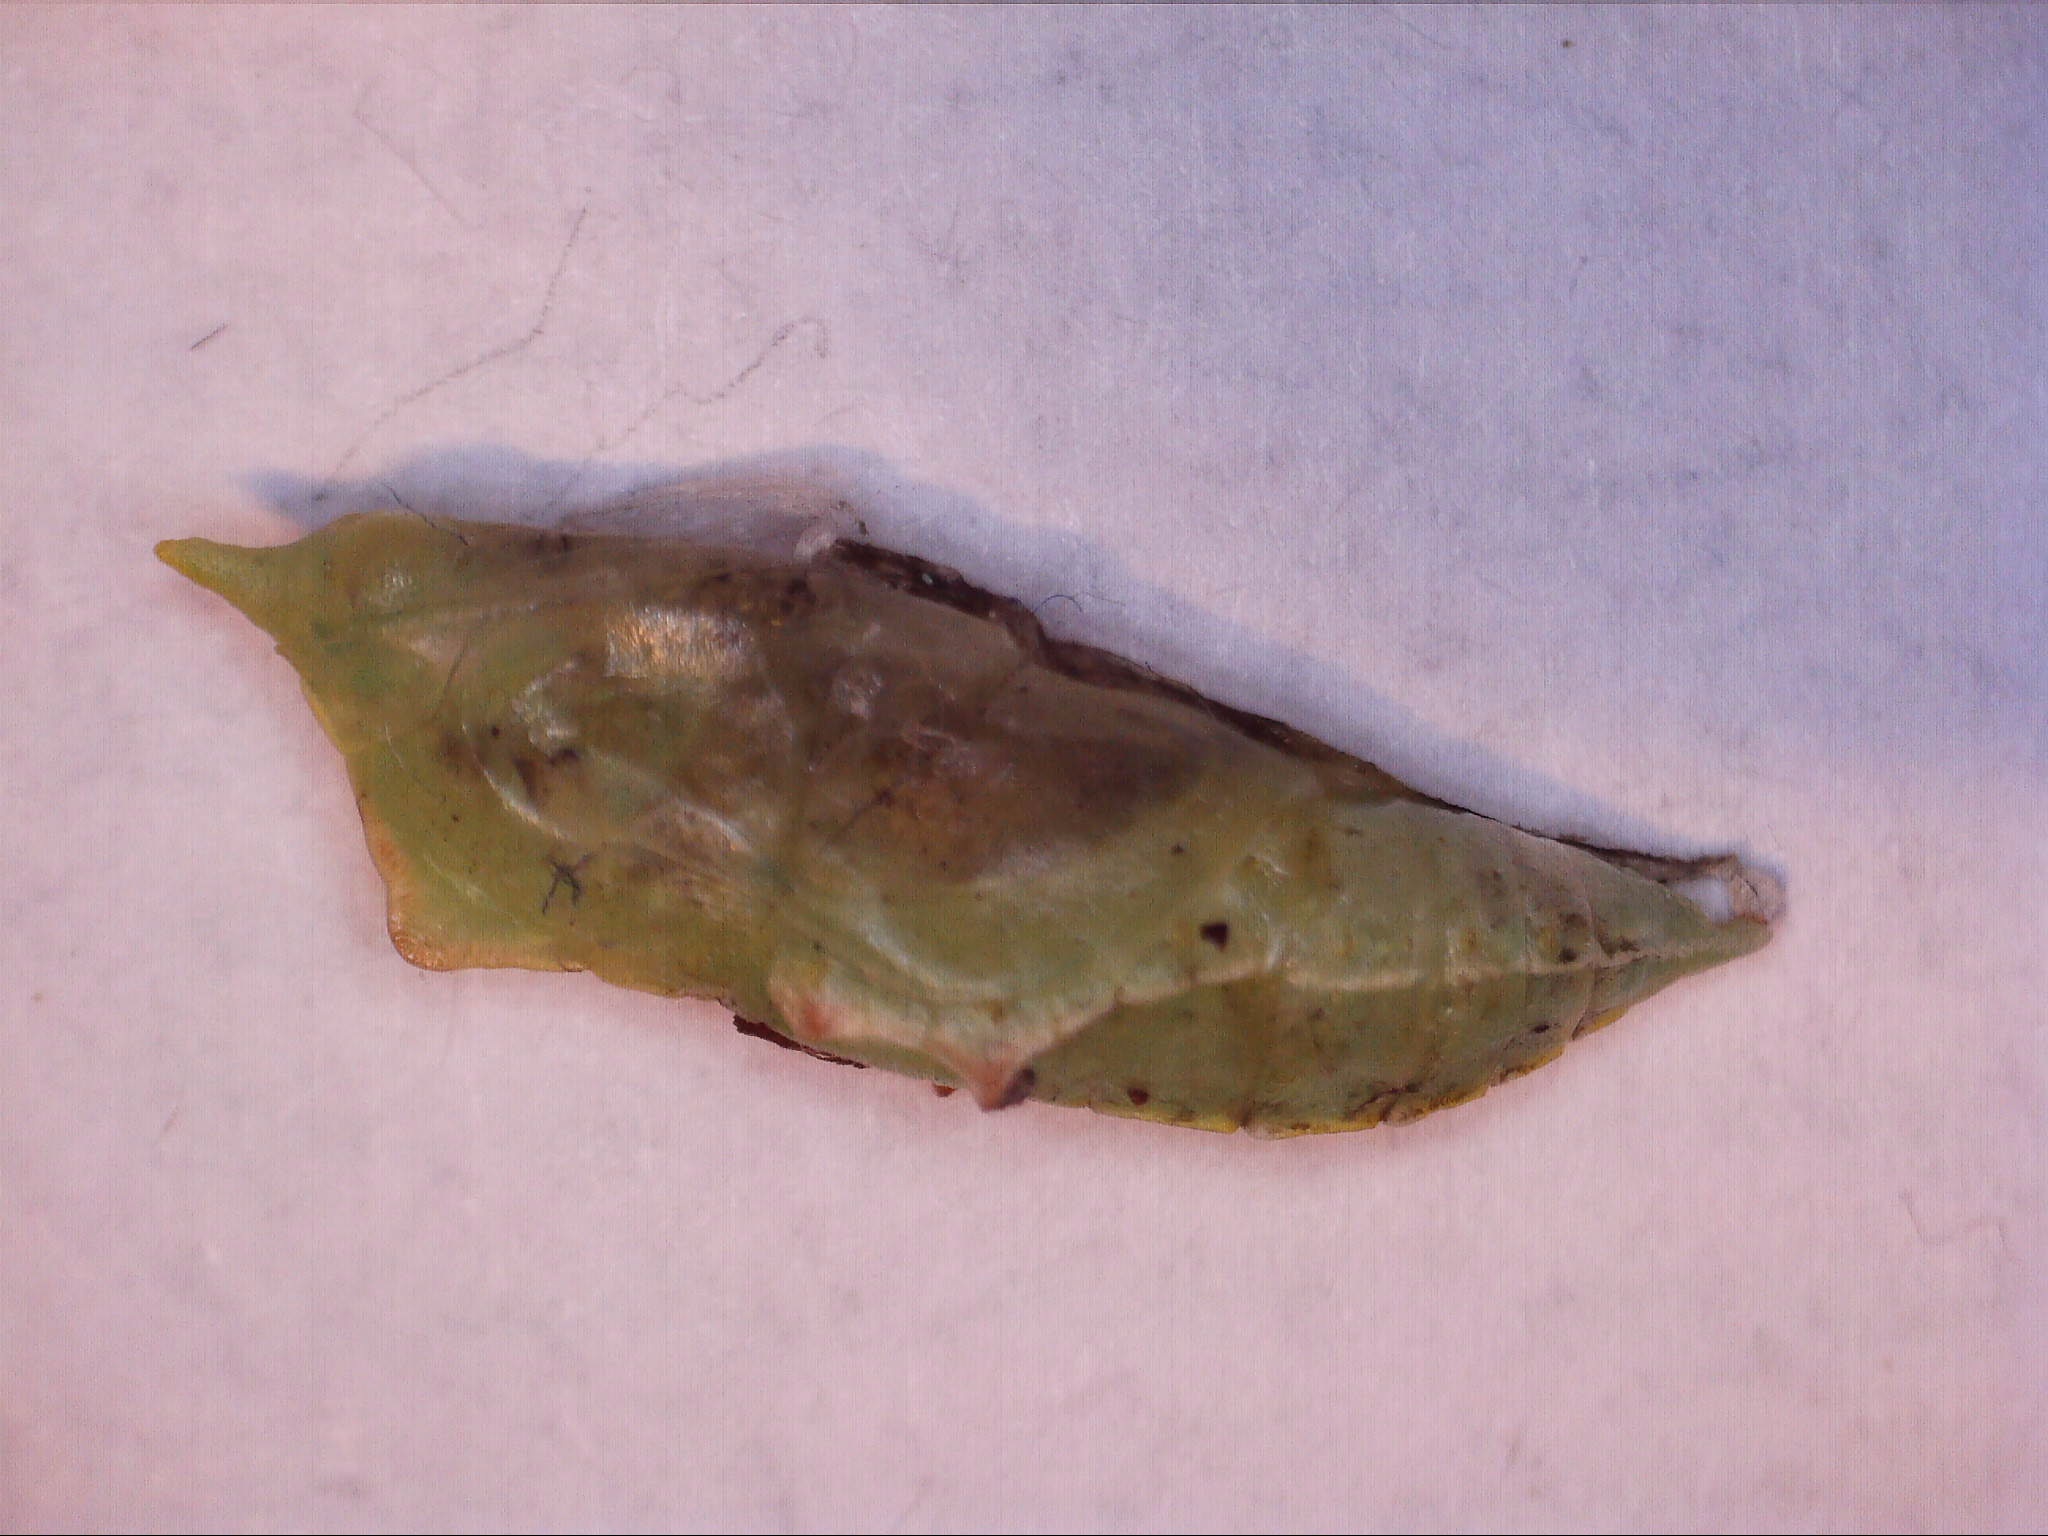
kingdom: Animalia
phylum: Arthropoda
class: Insecta
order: Lepidoptera
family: Pieridae
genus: Pieris
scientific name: Pieris rapae
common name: Small white
